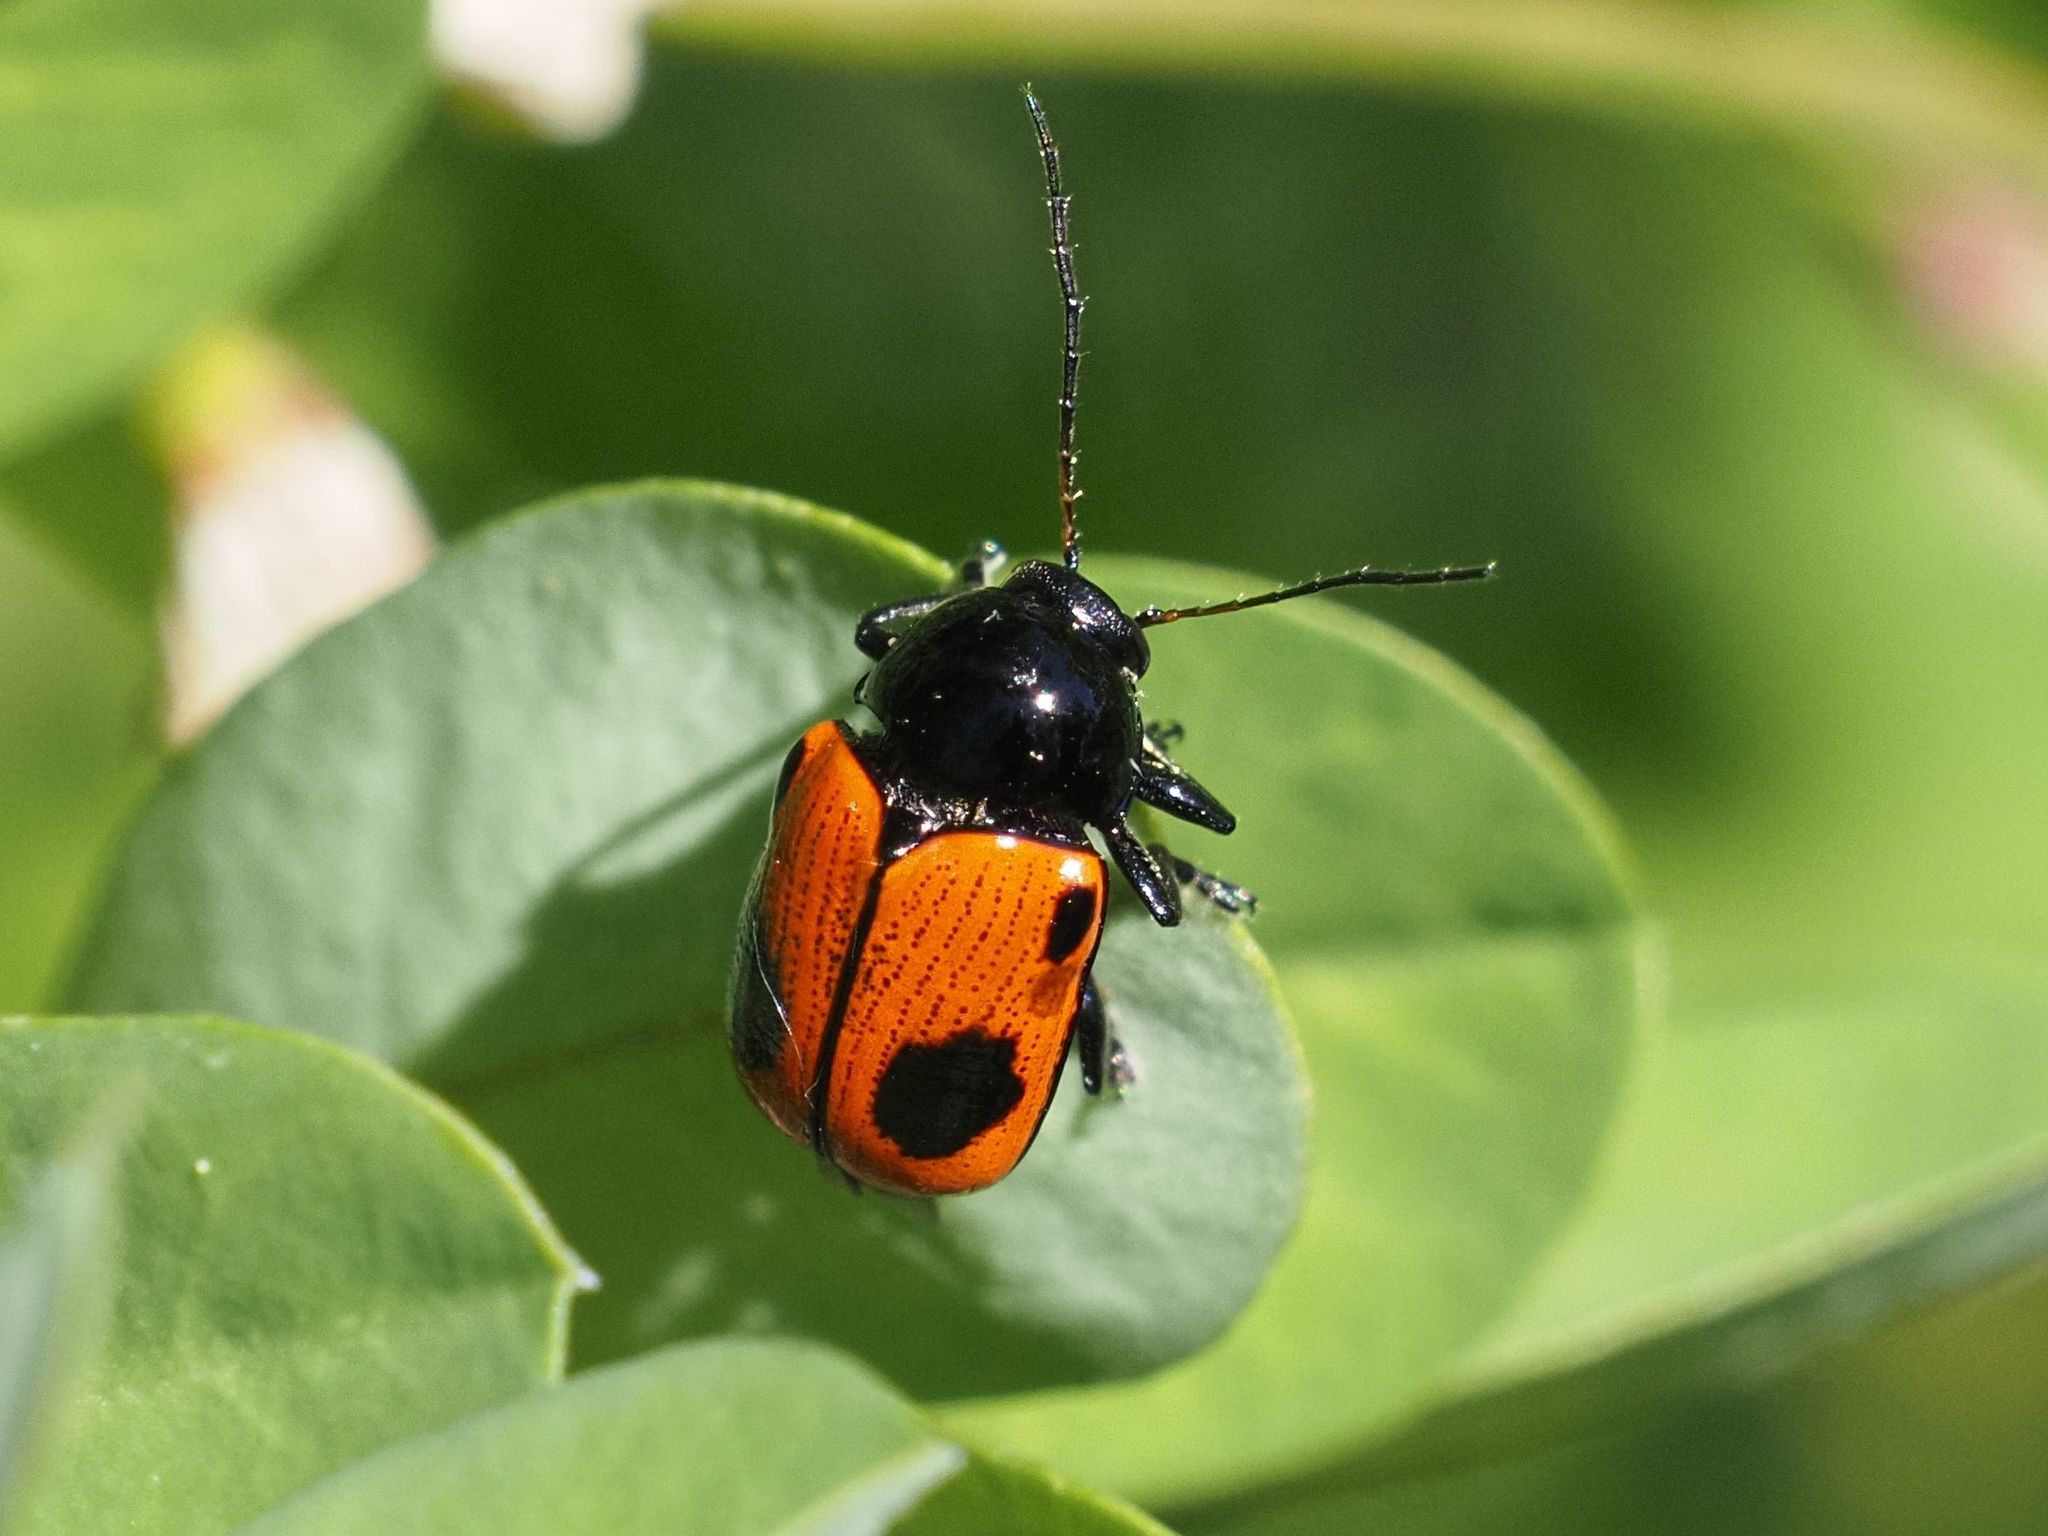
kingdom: Animalia
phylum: Arthropoda
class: Insecta
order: Coleoptera
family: Chrysomelidae
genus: Chiridopsis
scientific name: Chiridopsis bipunctata
